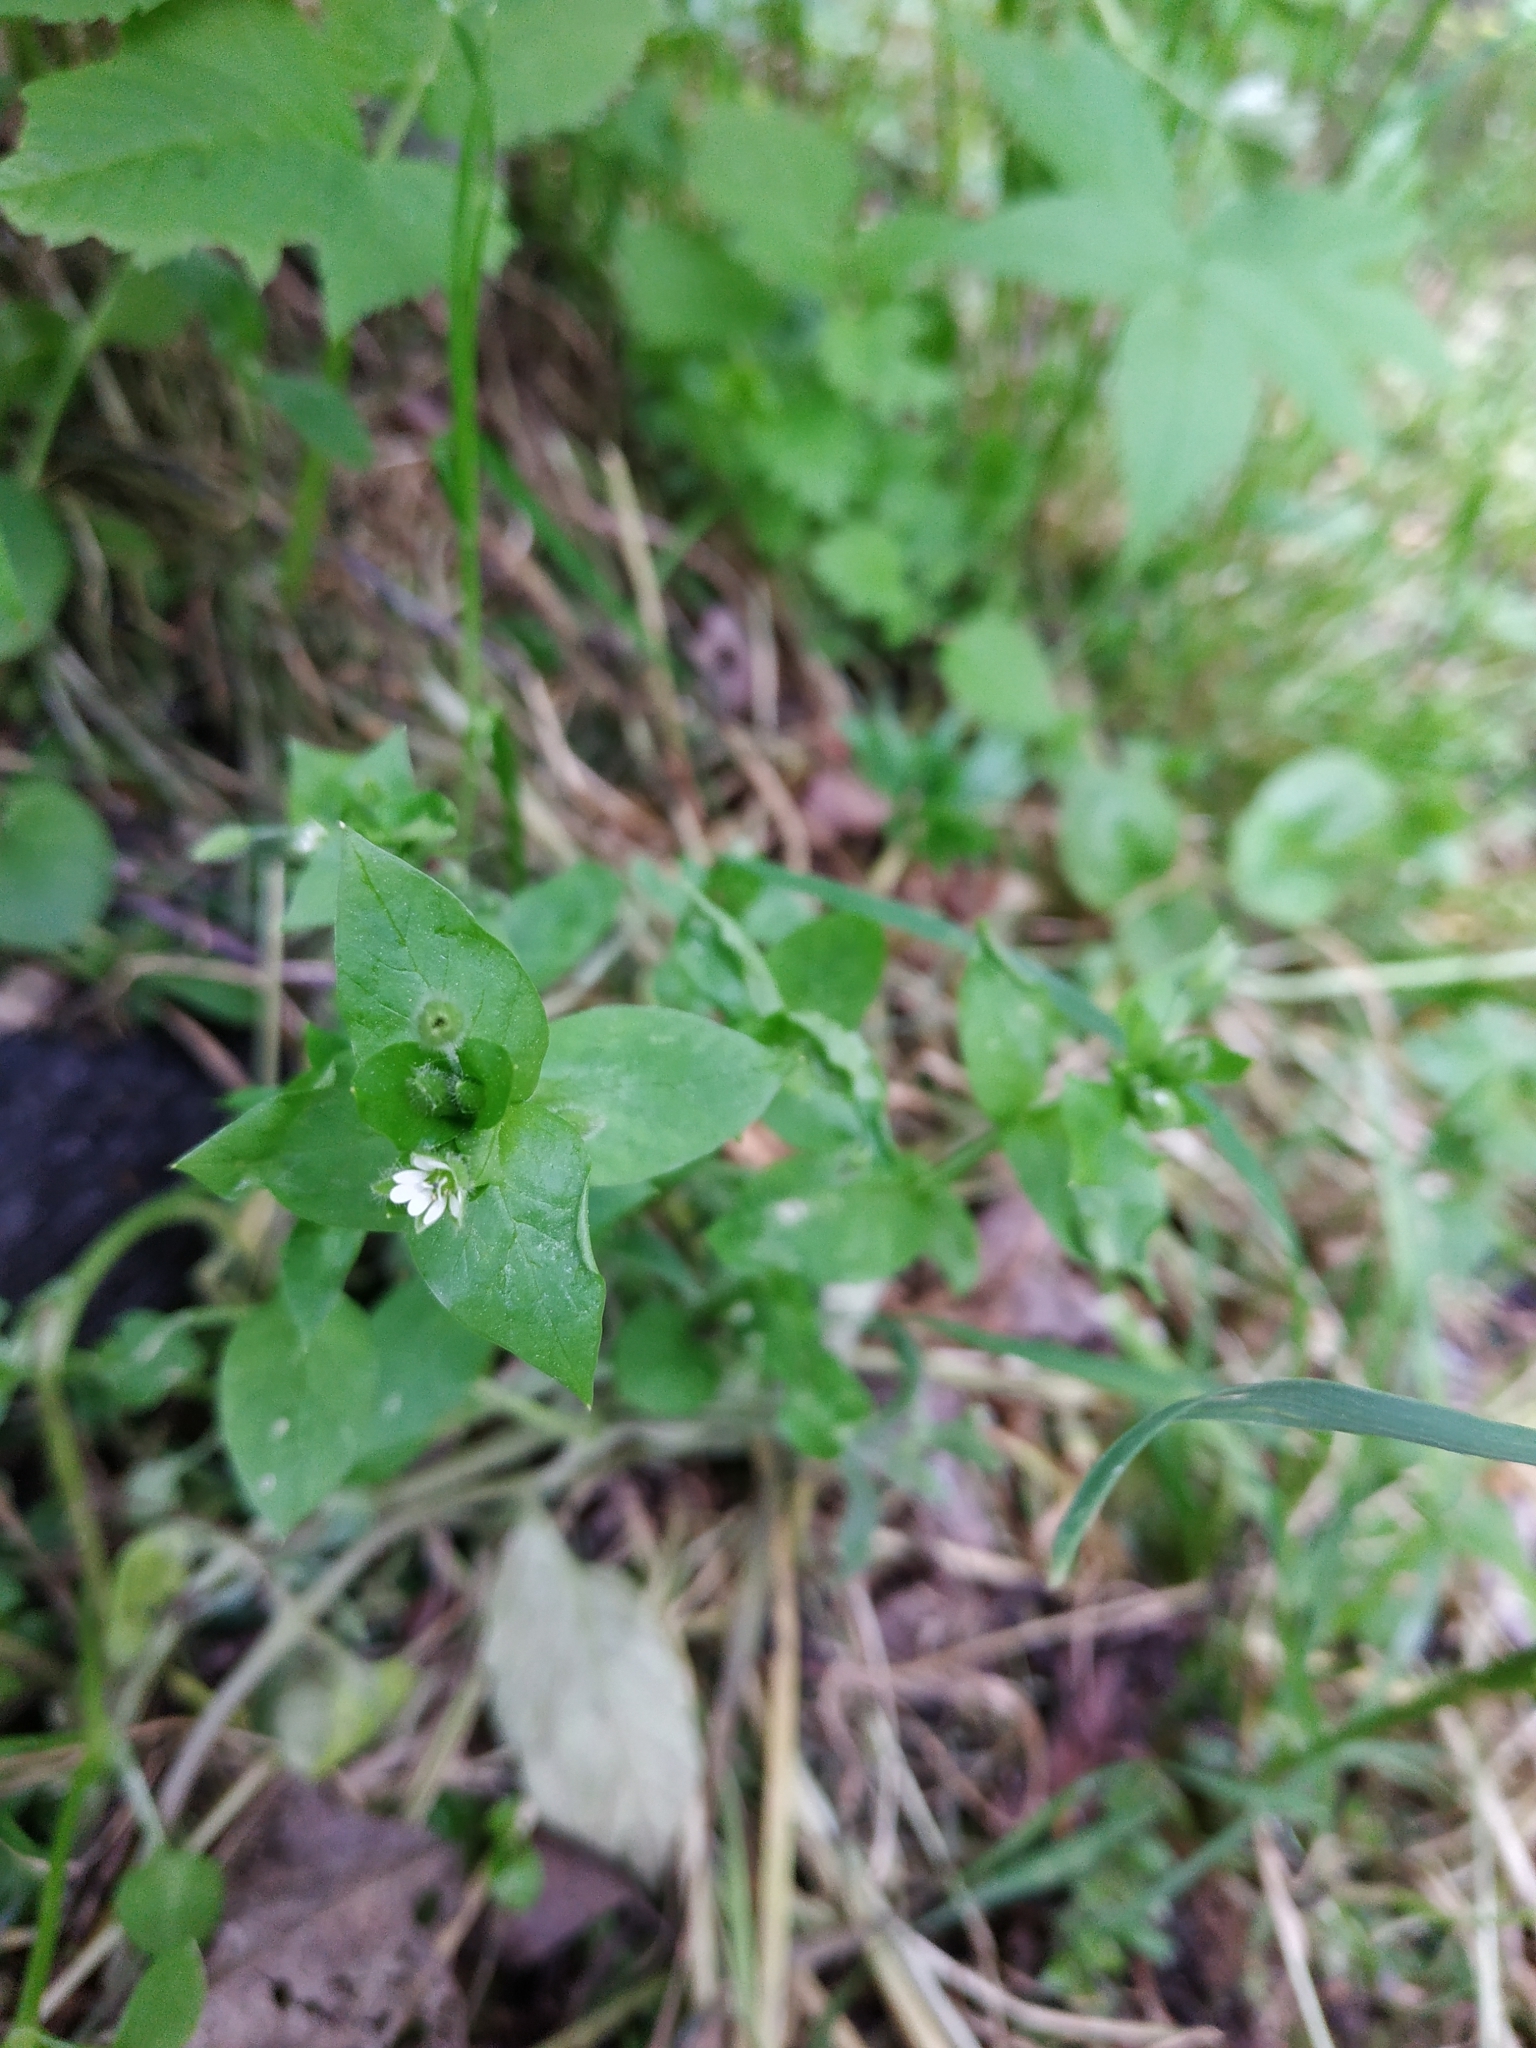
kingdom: Plantae
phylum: Tracheophyta
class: Magnoliopsida
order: Caryophyllales
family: Caryophyllaceae
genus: Stellaria
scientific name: Stellaria media
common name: Common chickweed
